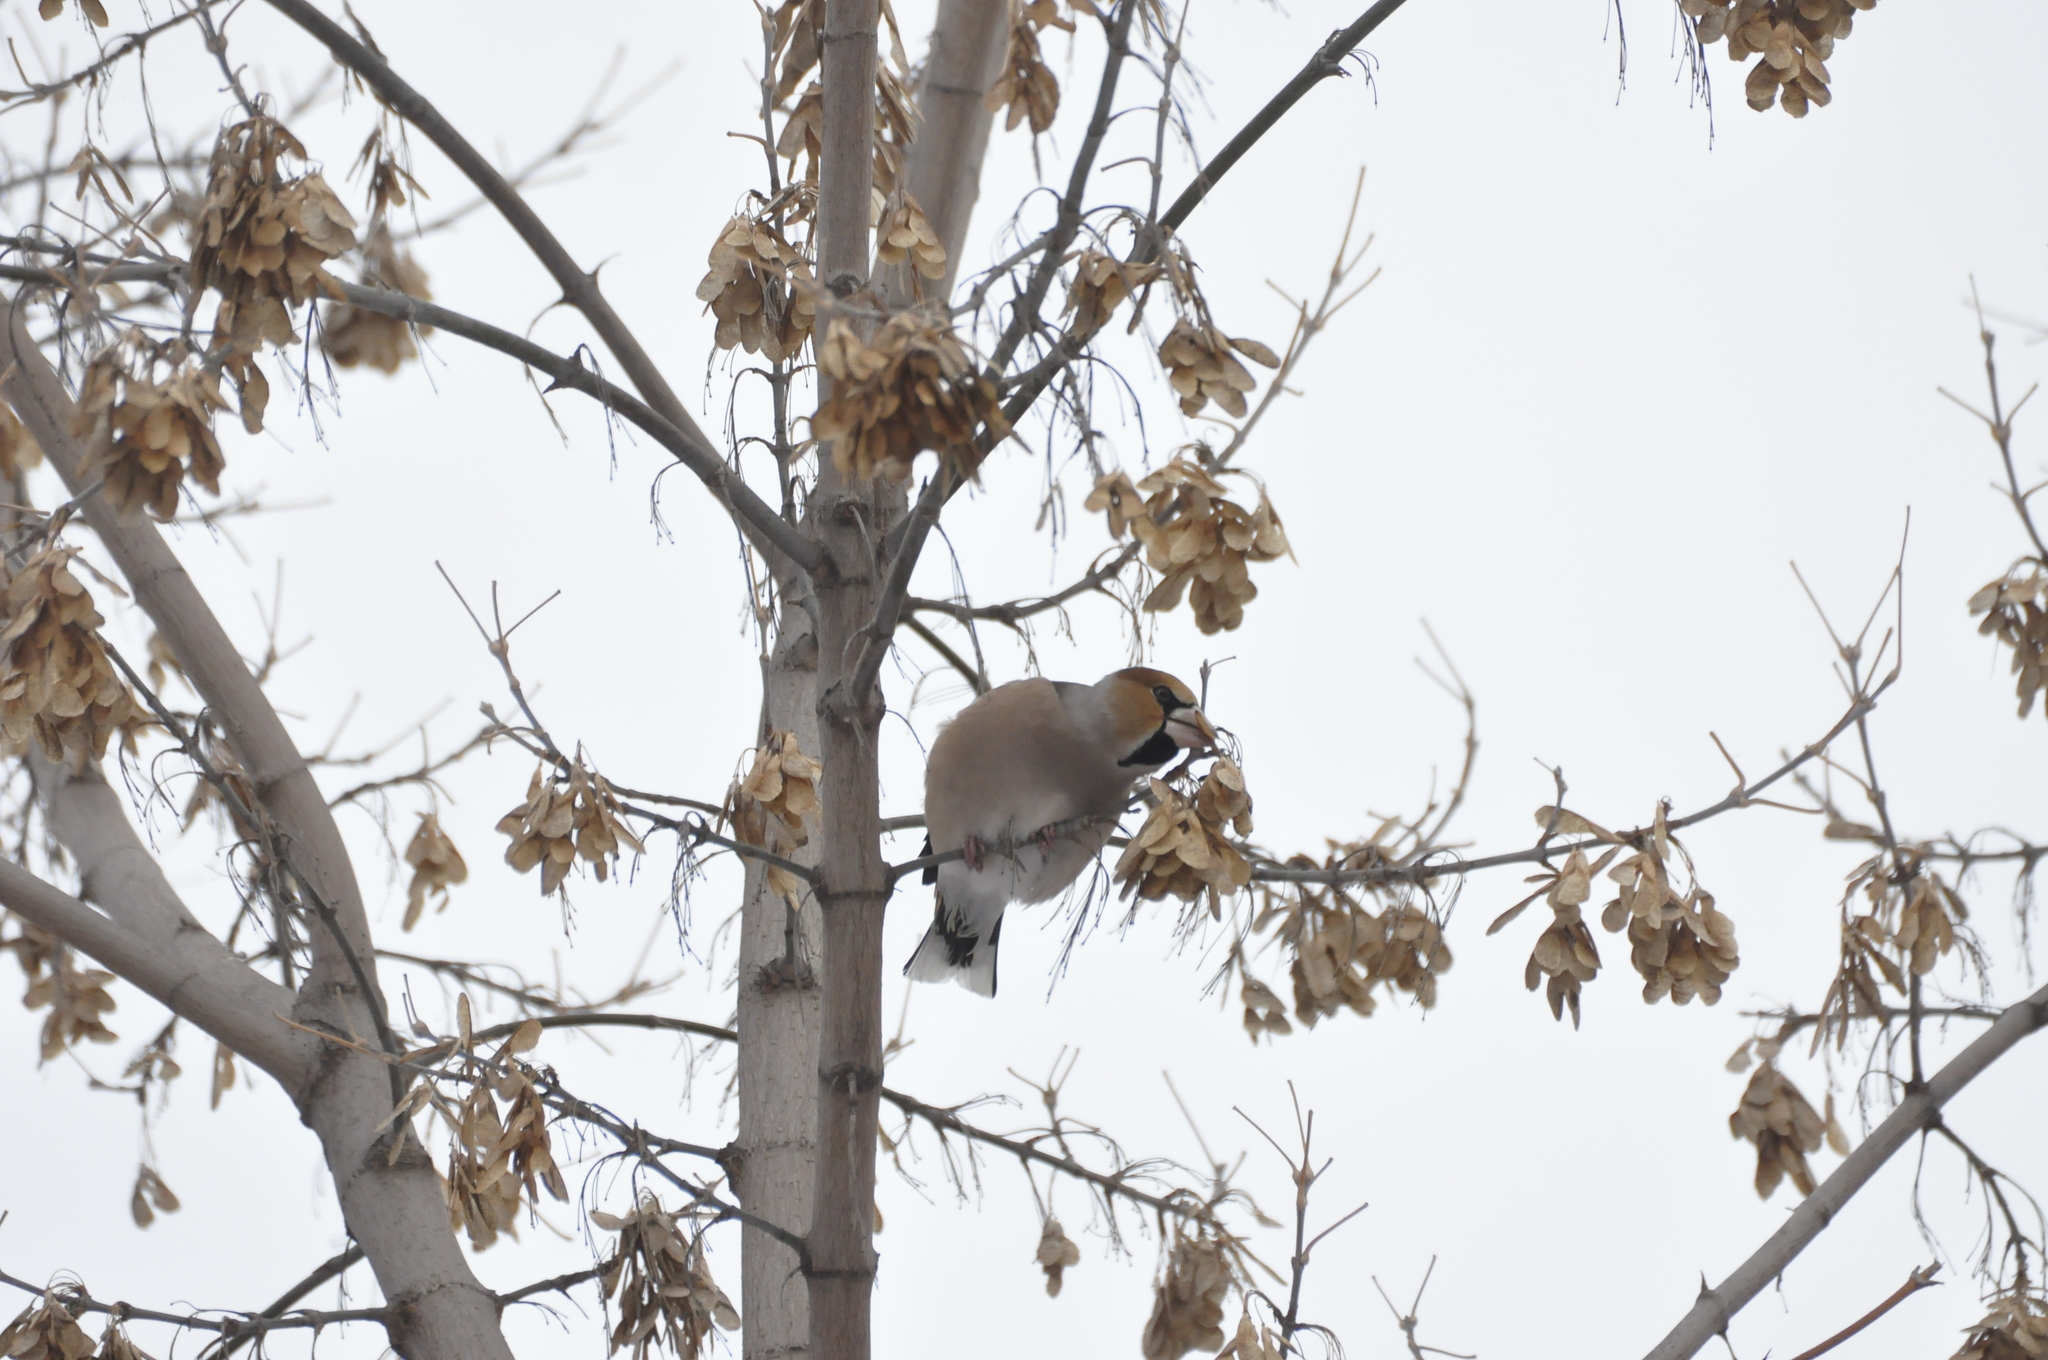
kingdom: Animalia
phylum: Chordata
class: Aves
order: Passeriformes
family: Fringillidae
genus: Coccothraustes
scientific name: Coccothraustes coccothraustes
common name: Hawfinch
